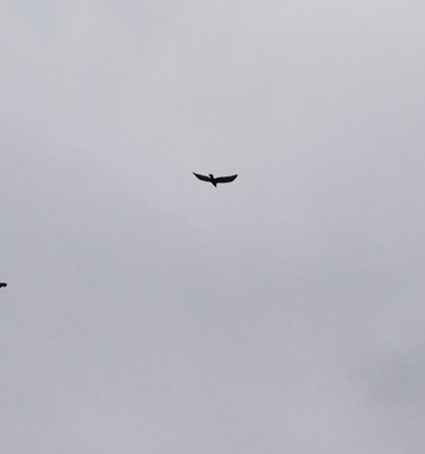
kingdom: Animalia
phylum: Chordata
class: Aves
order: Passeriformes
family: Corvidae
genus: Corvus
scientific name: Corvus corax
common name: Common raven
